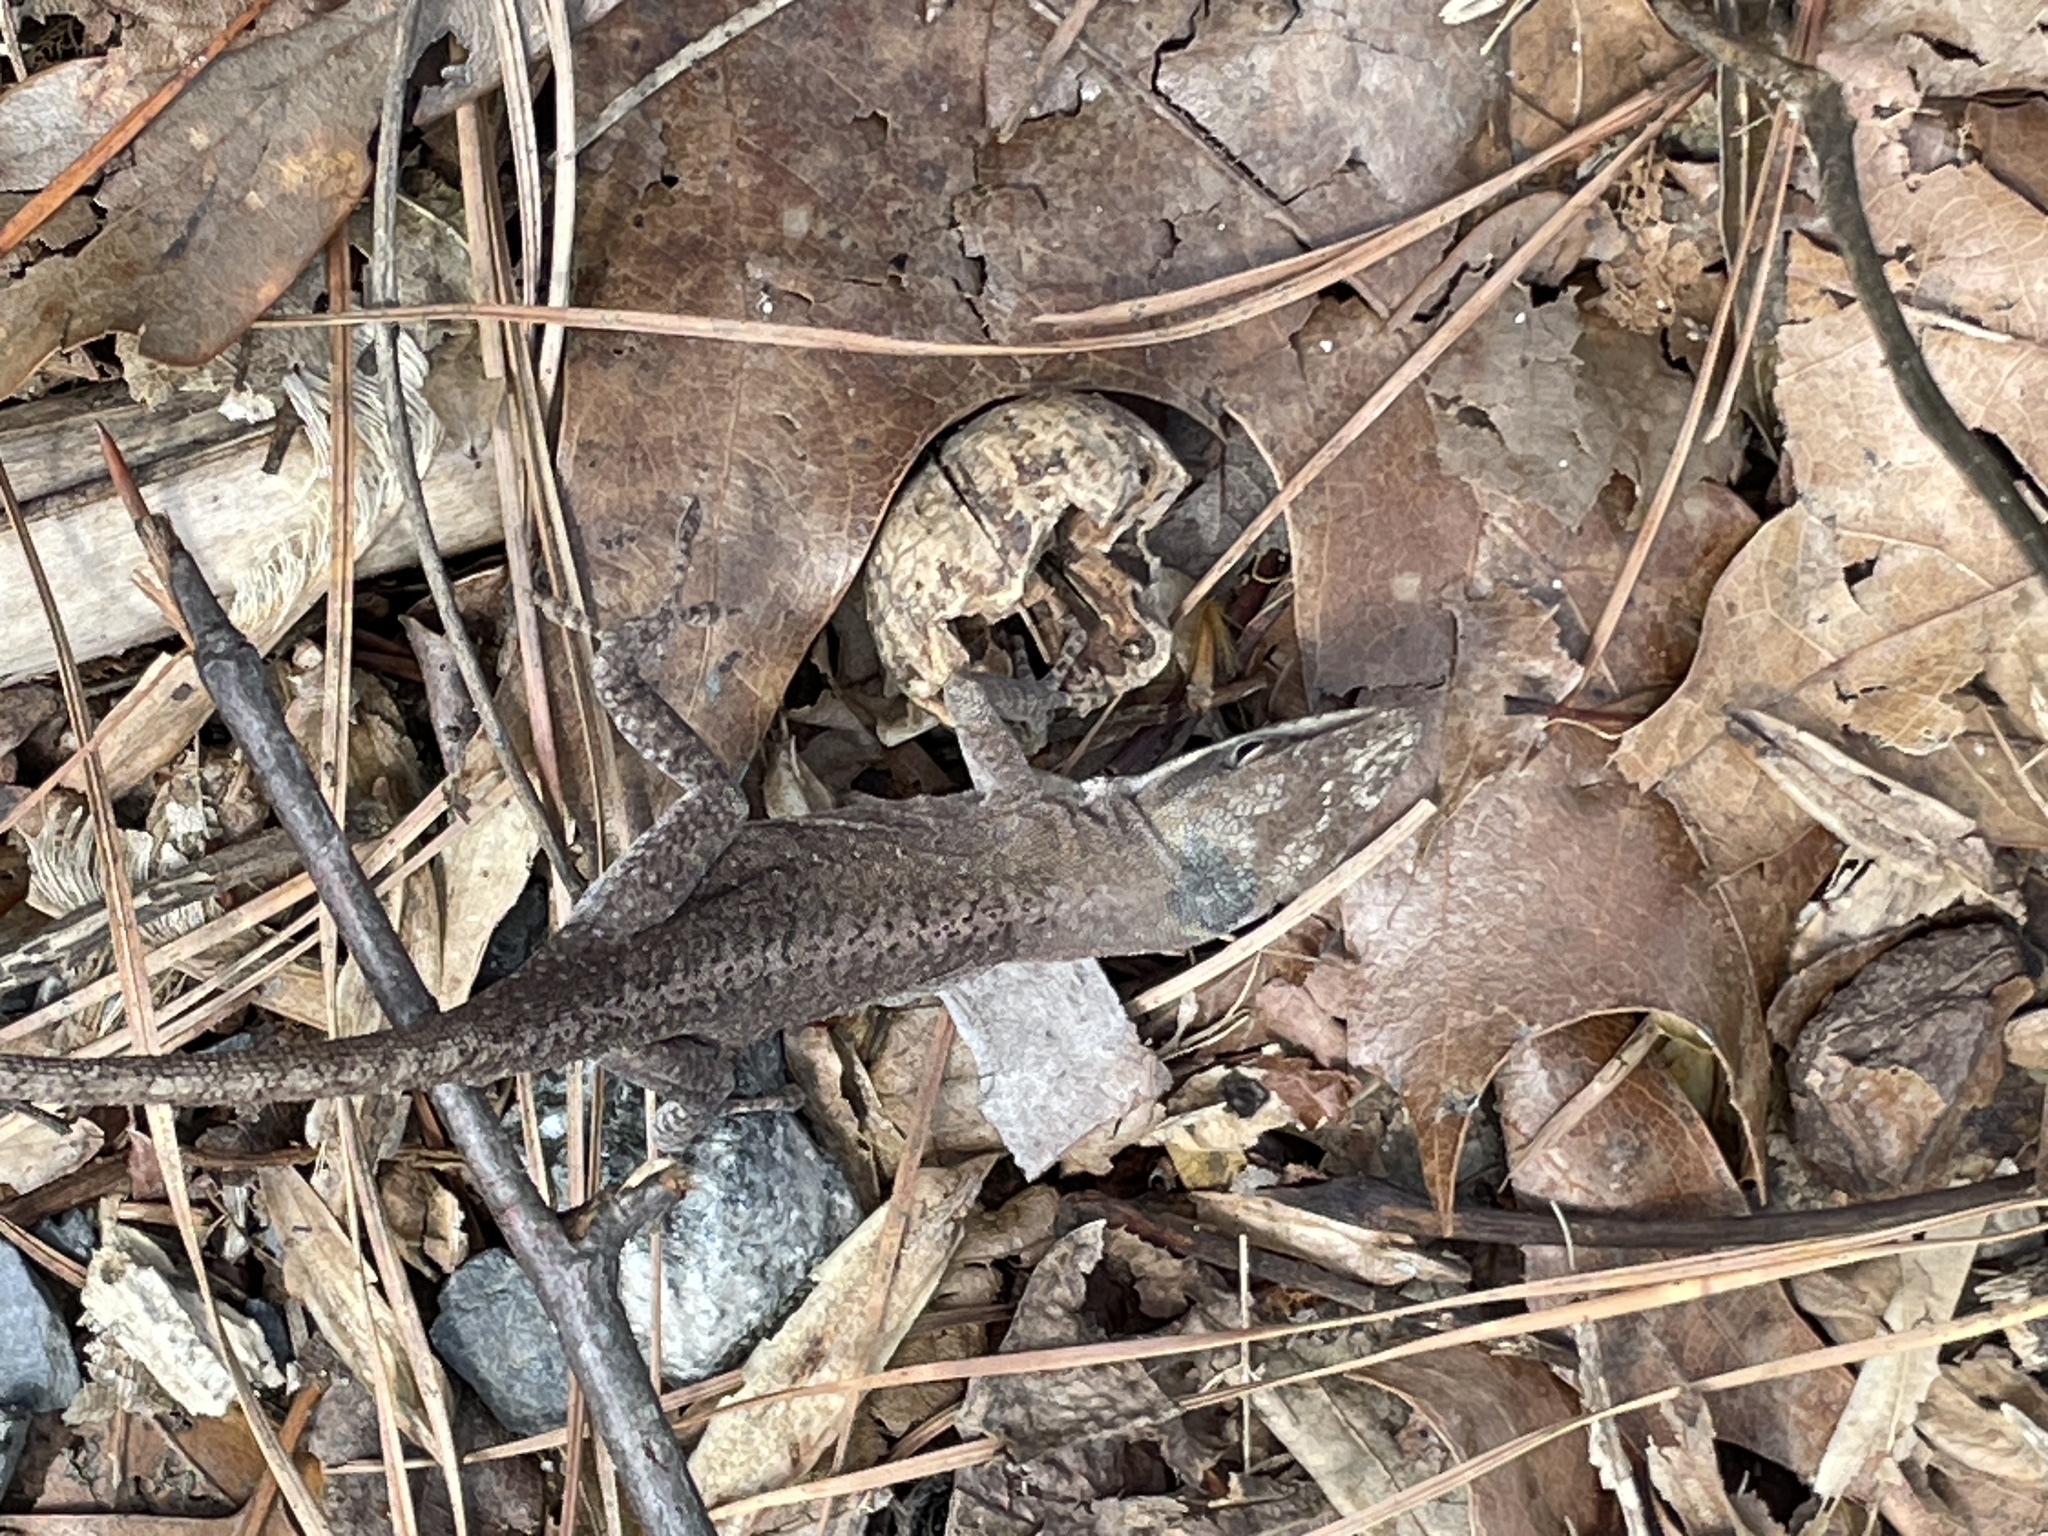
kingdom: Animalia
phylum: Chordata
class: Squamata
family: Dactyloidae
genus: Anolis
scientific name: Anolis carolinensis
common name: Green anole
